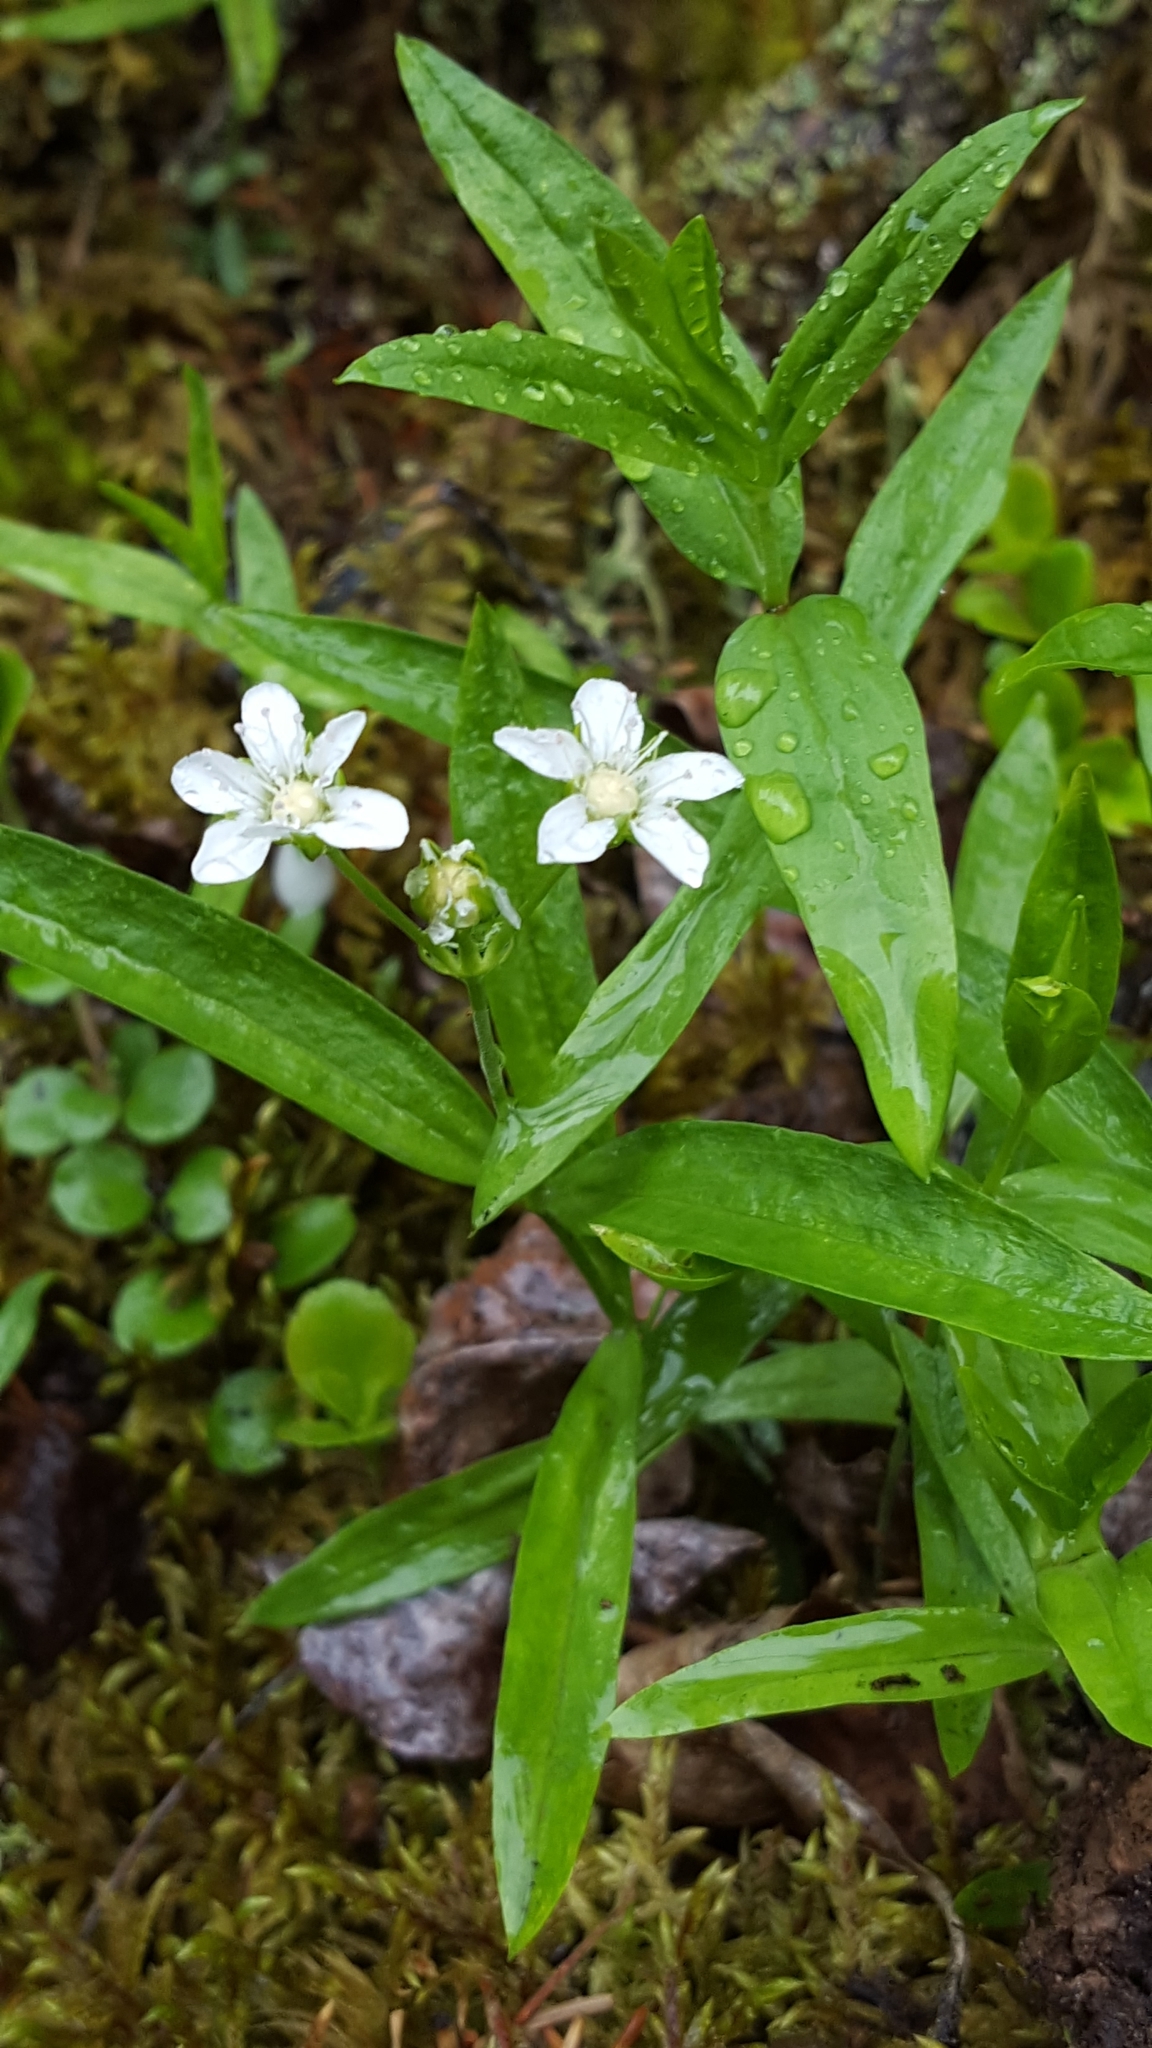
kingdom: Plantae
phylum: Tracheophyta
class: Magnoliopsida
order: Caryophyllales
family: Caryophyllaceae
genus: Moehringia
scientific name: Moehringia macrophylla
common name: Big-leaf sandwort
